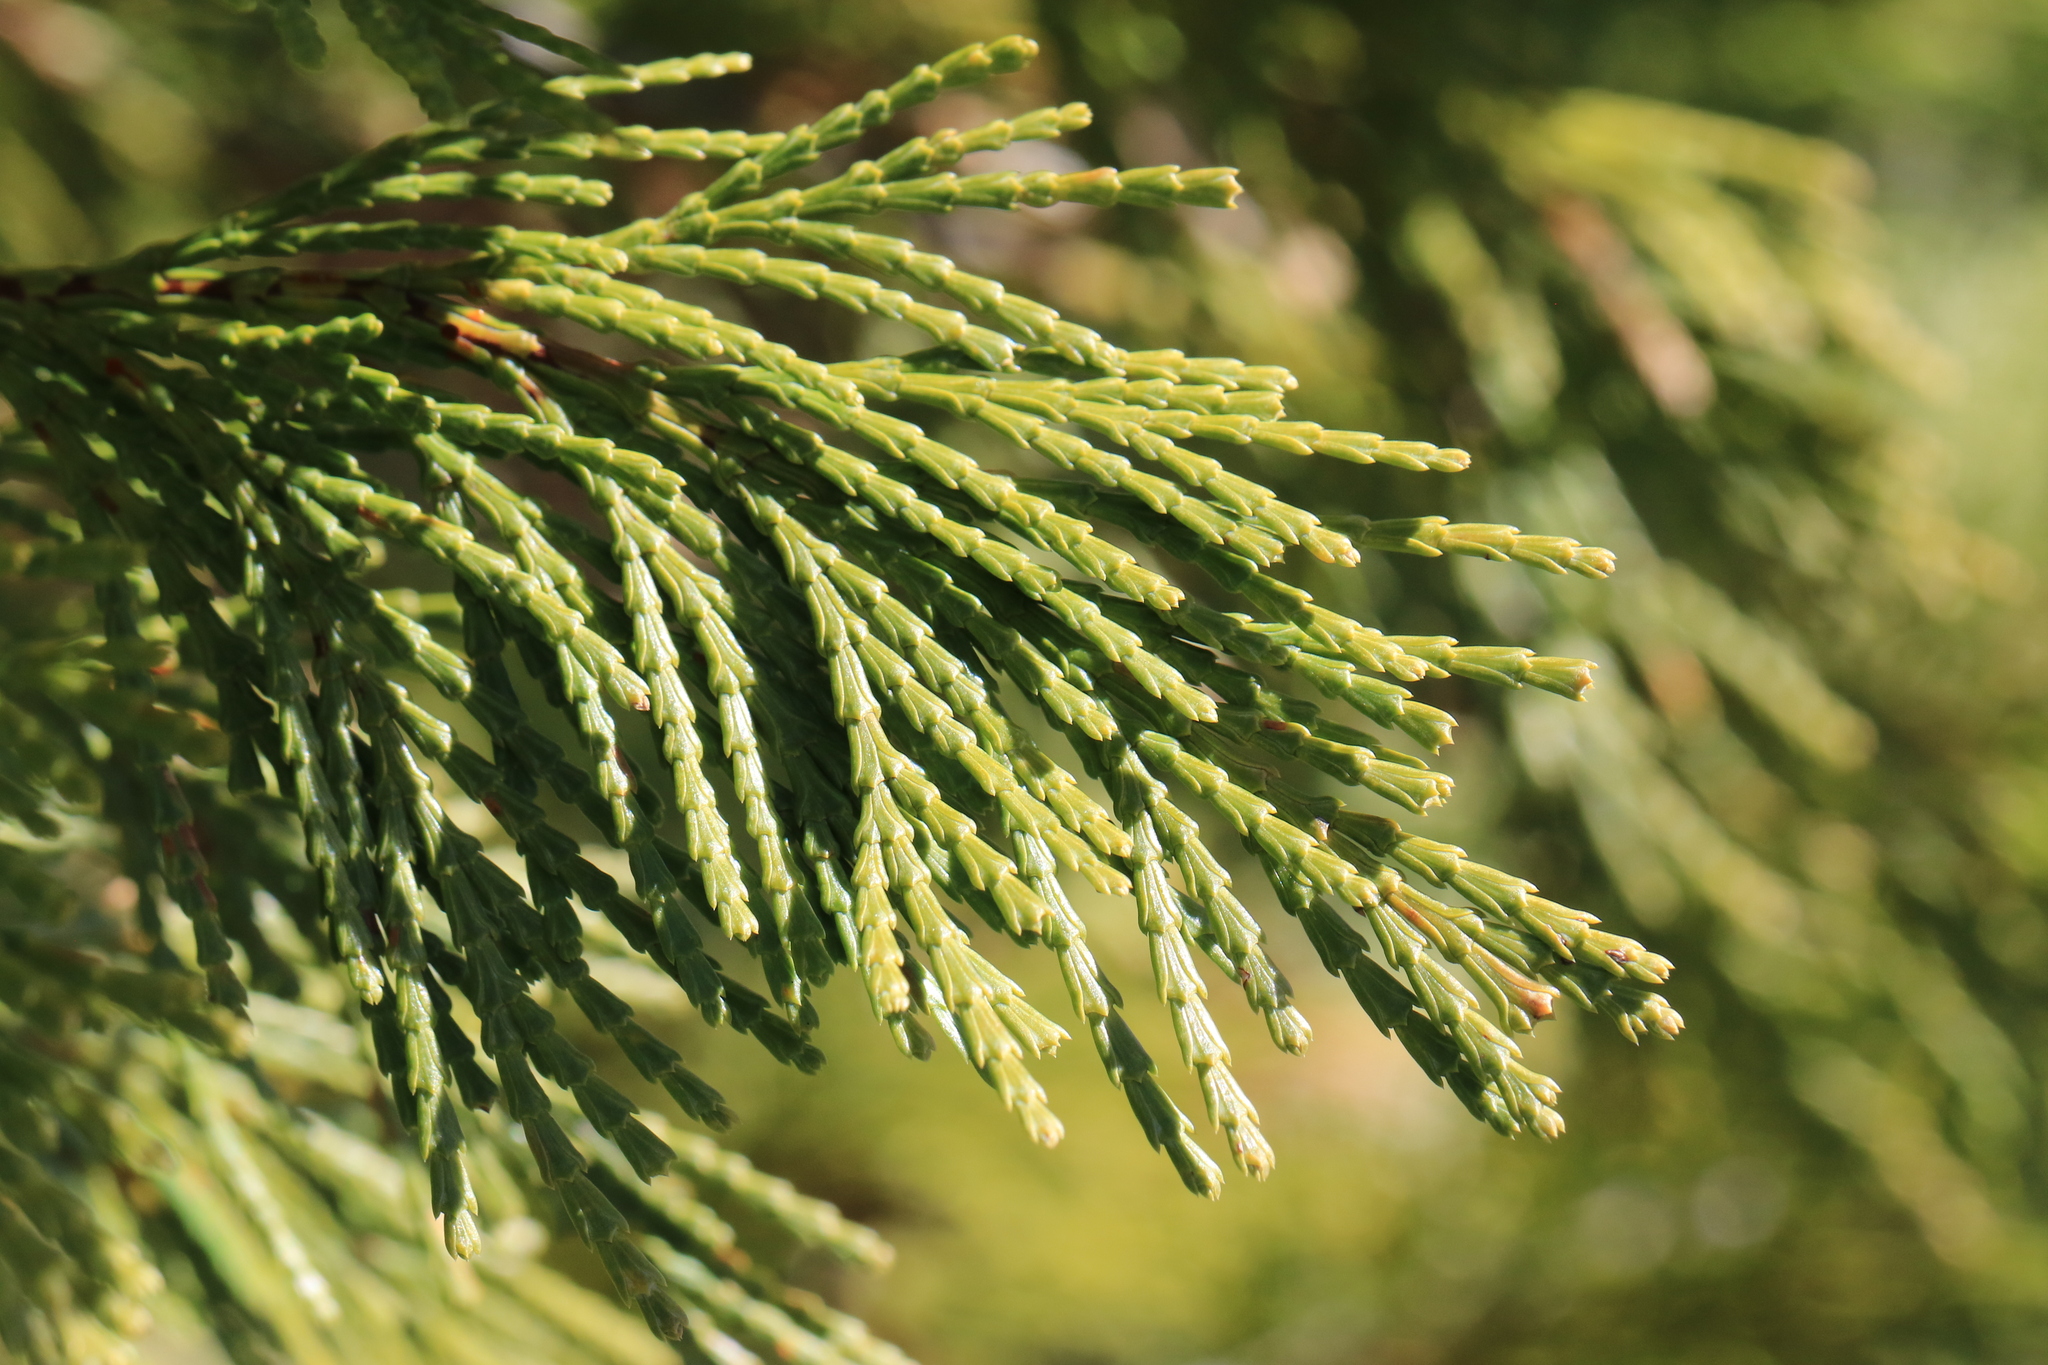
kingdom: Plantae
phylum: Tracheophyta
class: Pinopsida
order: Pinales
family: Cupressaceae
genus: Calocedrus
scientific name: Calocedrus decurrens
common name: Californian incense-cedar
